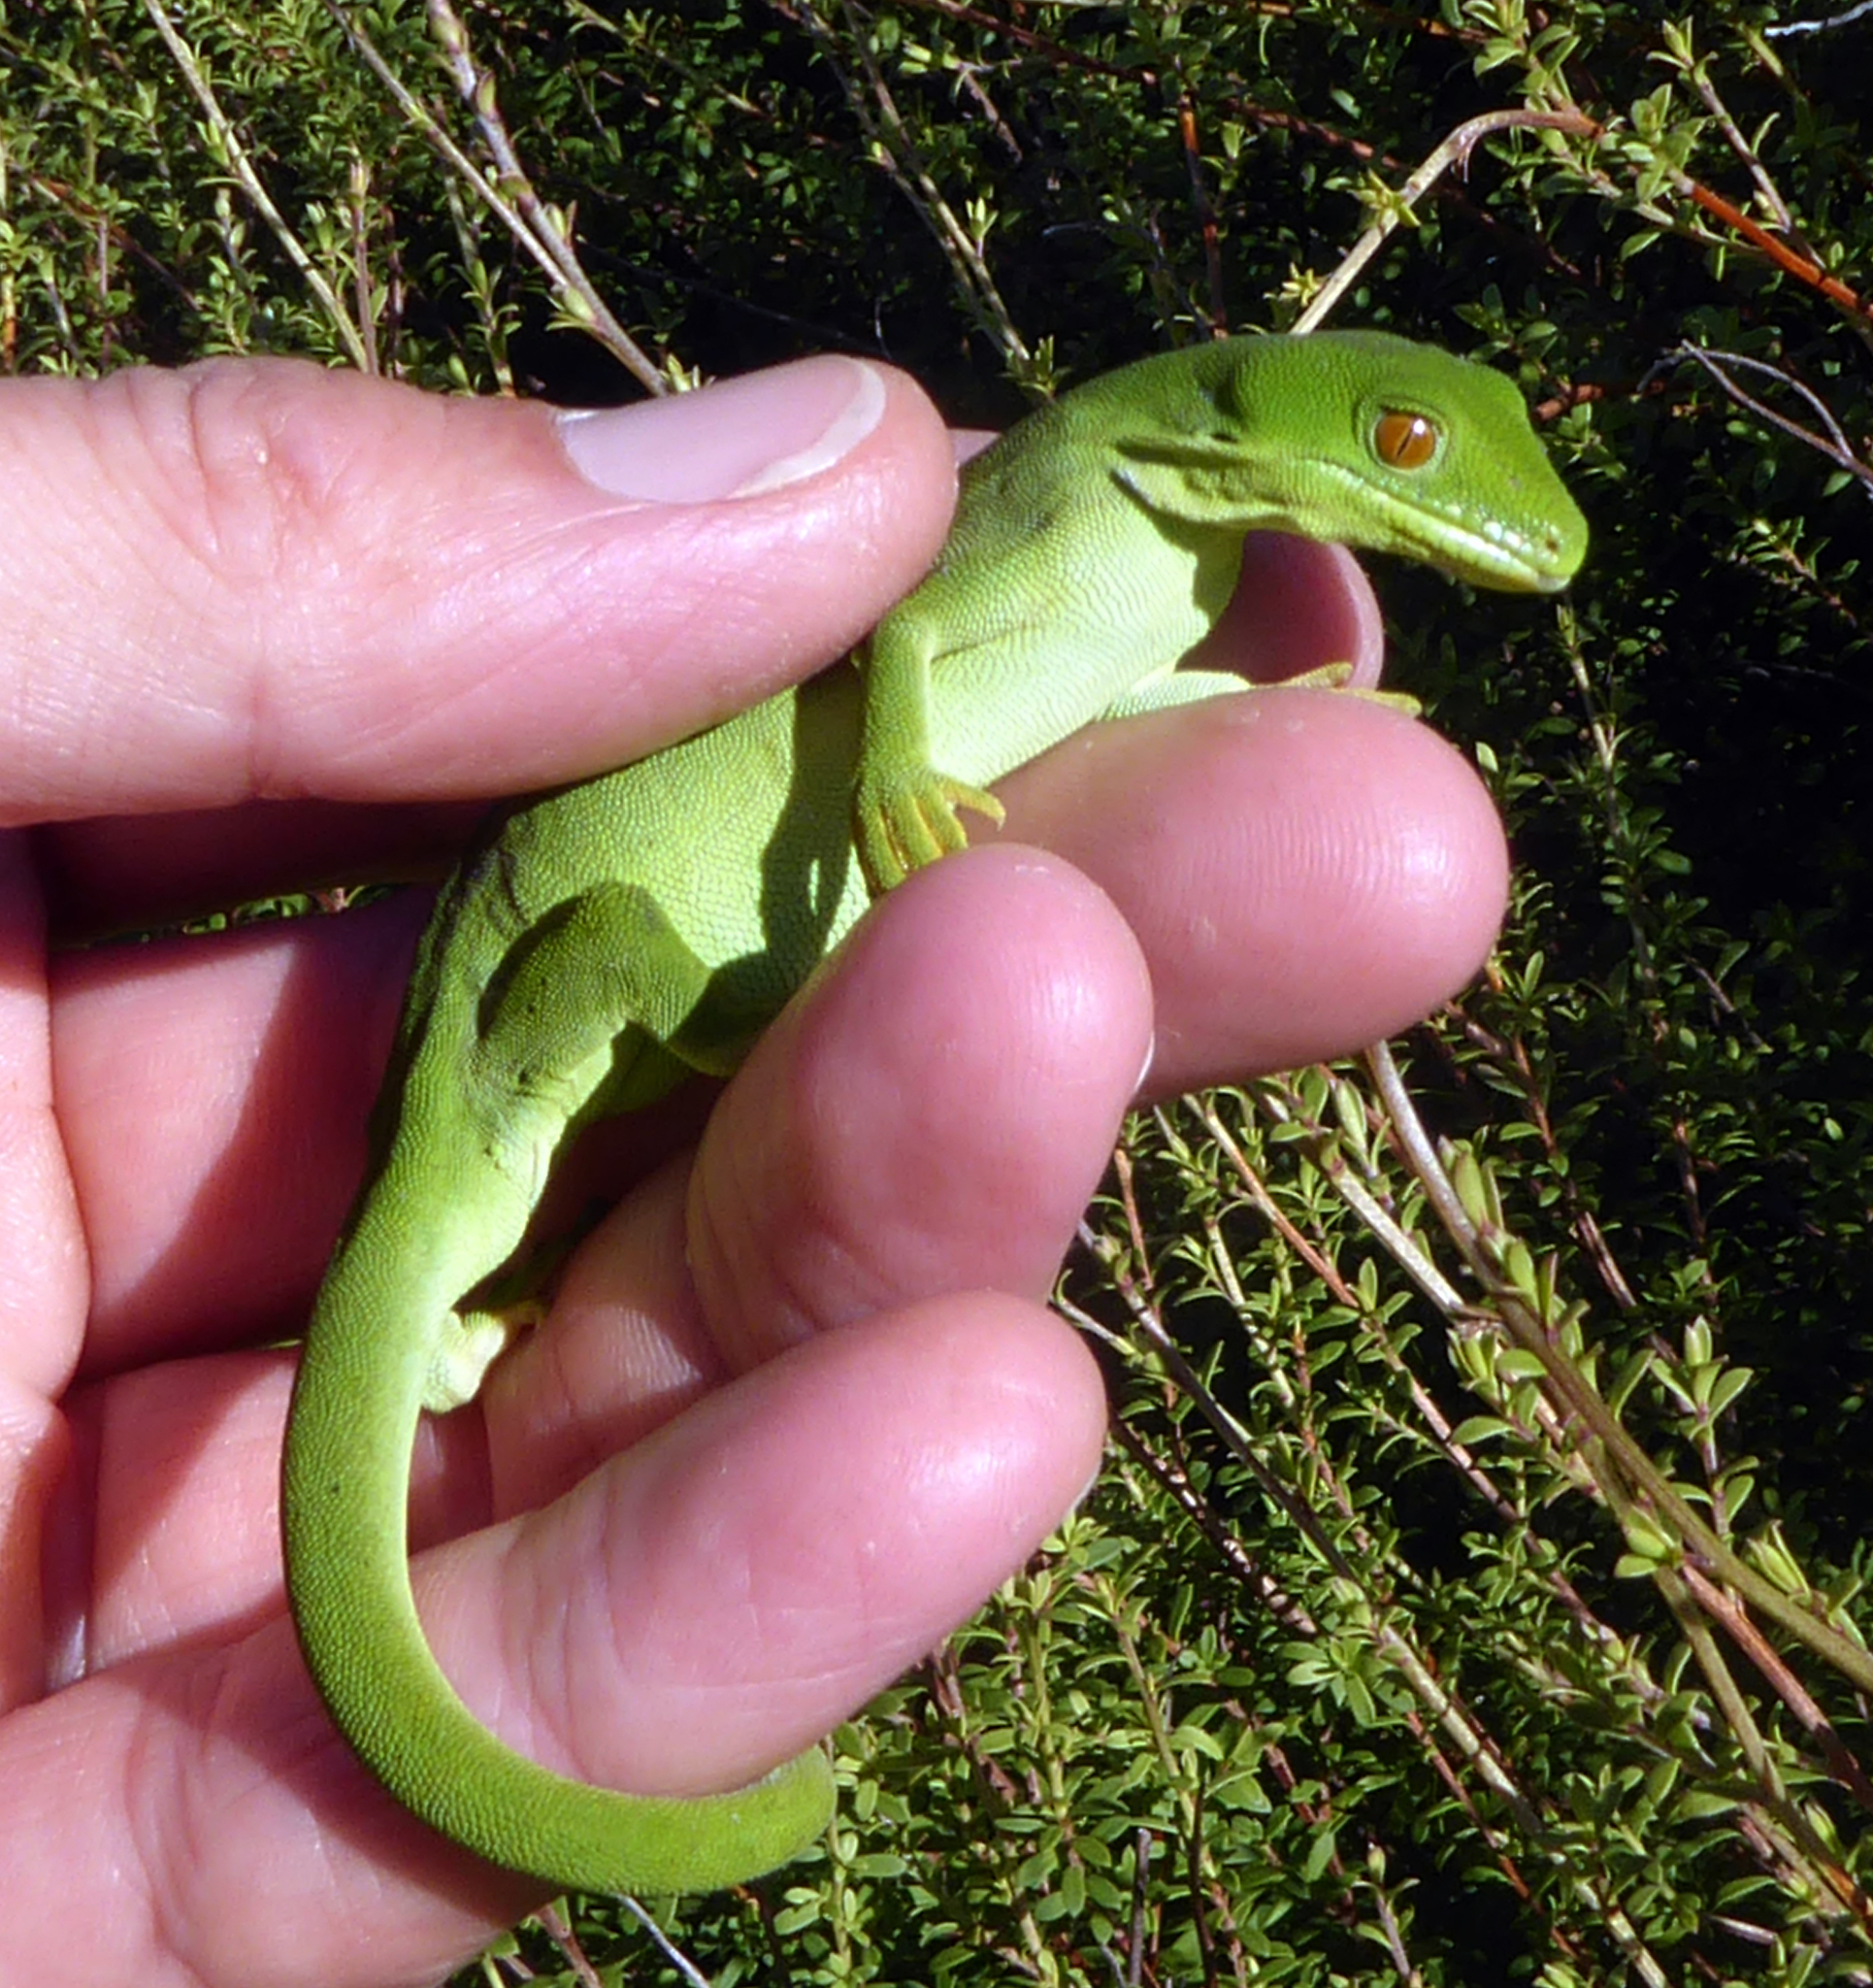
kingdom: Animalia
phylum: Chordata
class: Squamata
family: Diplodactylidae
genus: Naultinus
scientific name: Naultinus punctatus
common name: Wellington green gecko
